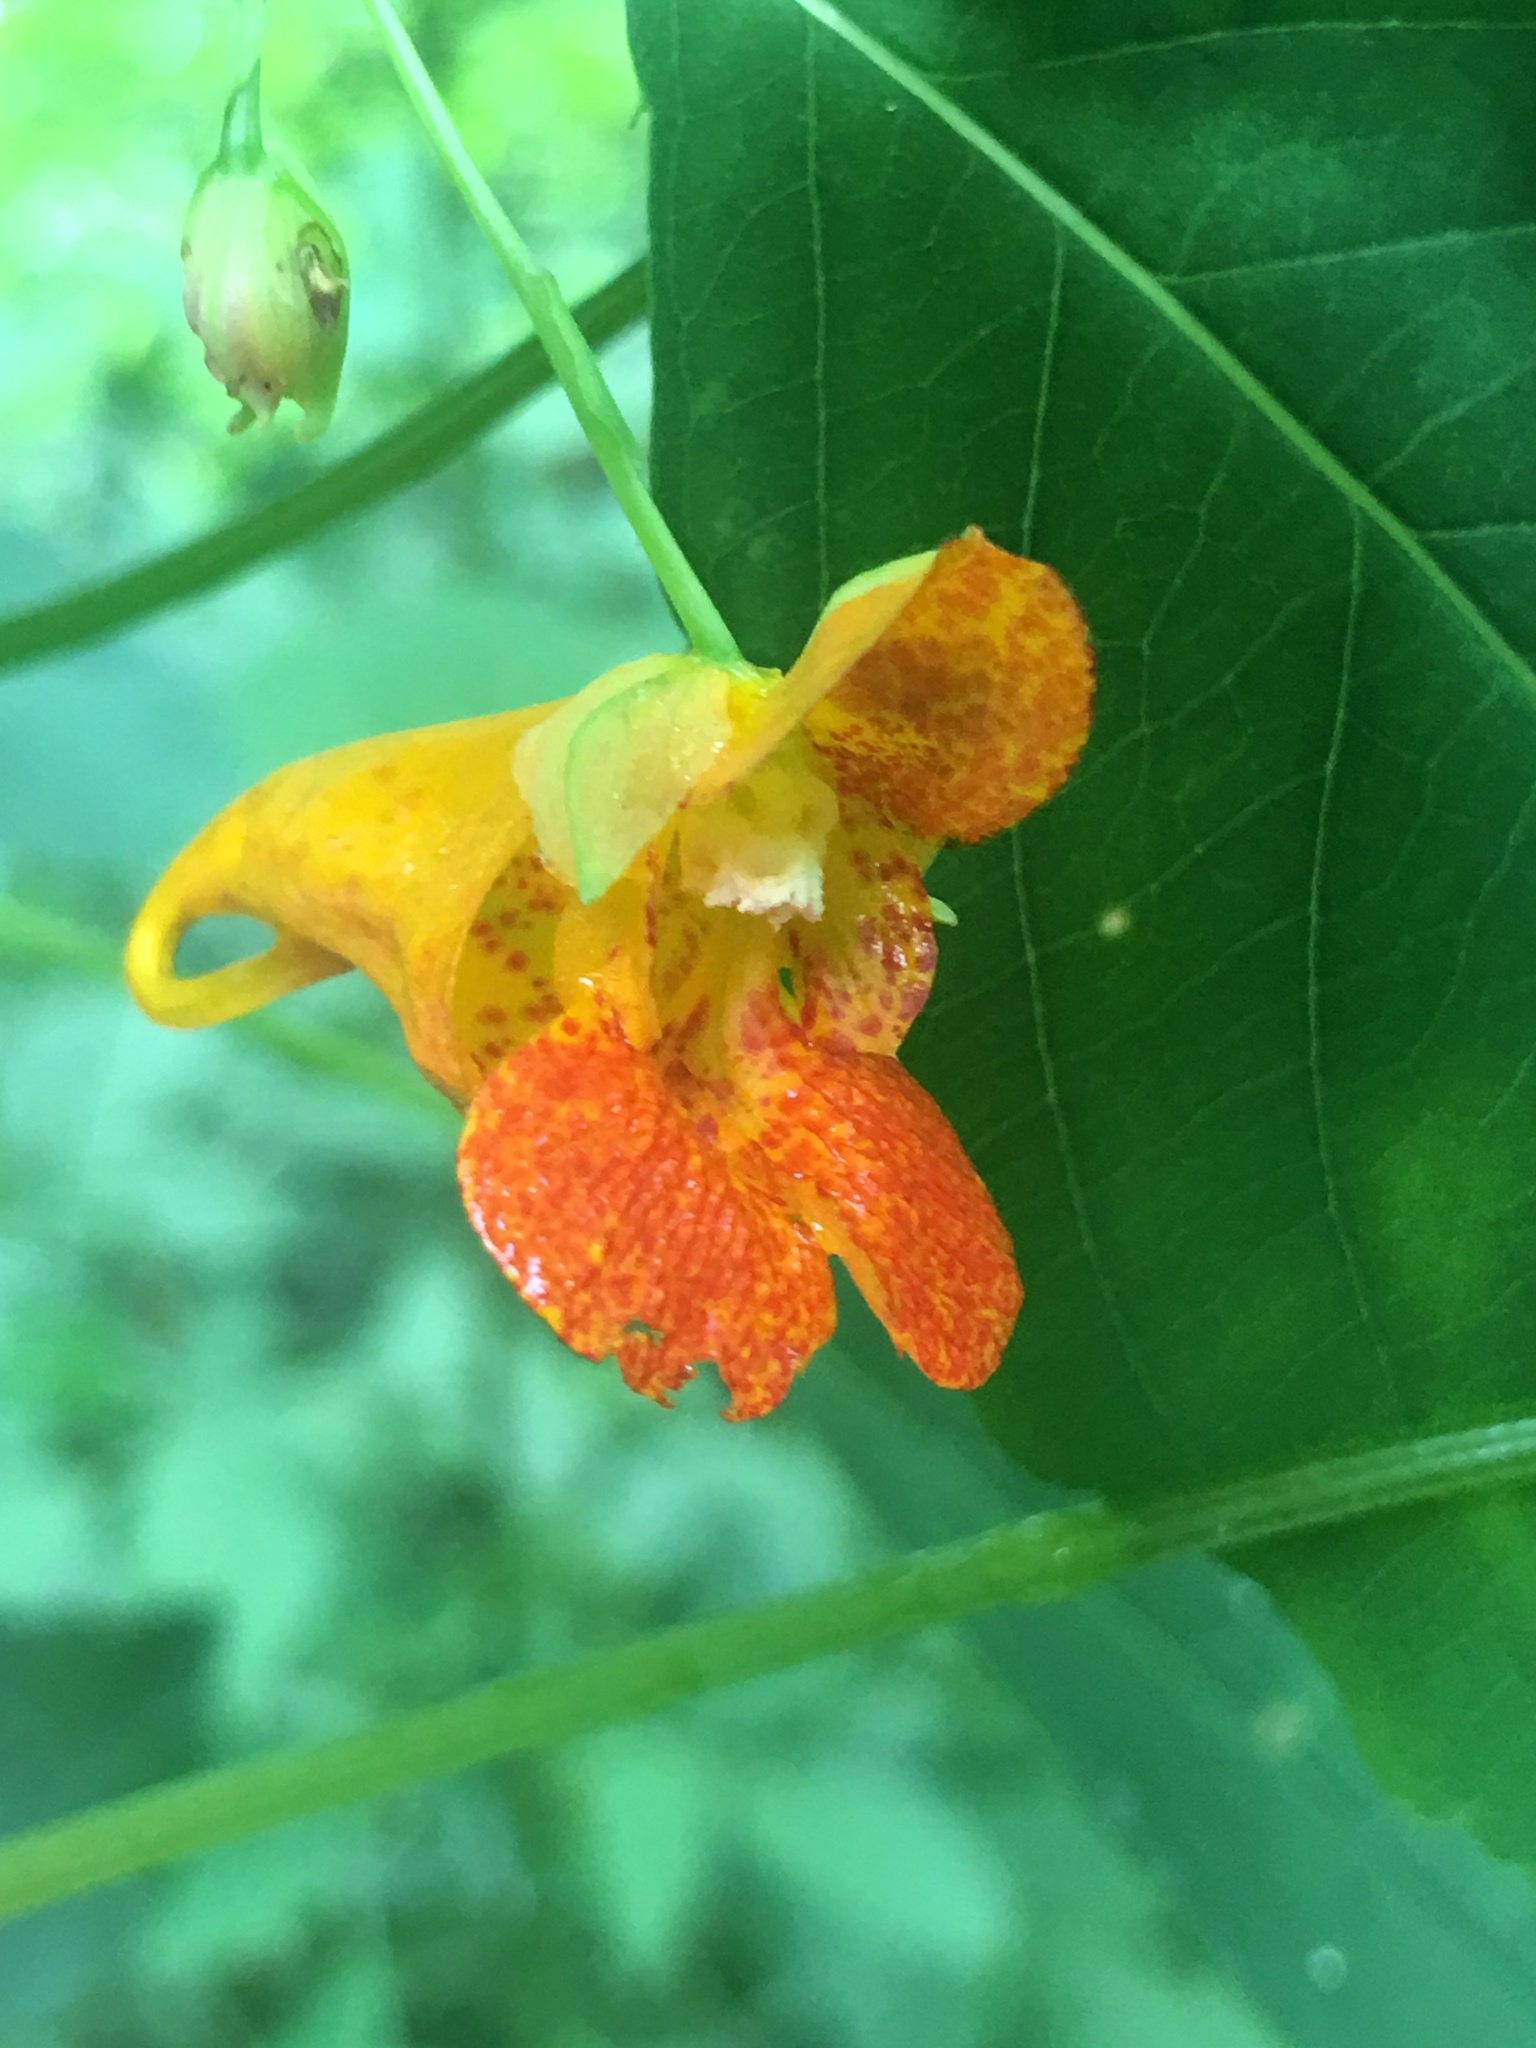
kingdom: Plantae
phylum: Tracheophyta
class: Magnoliopsida
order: Ericales
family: Balsaminaceae
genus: Impatiens
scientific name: Impatiens capensis
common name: Orange balsam
